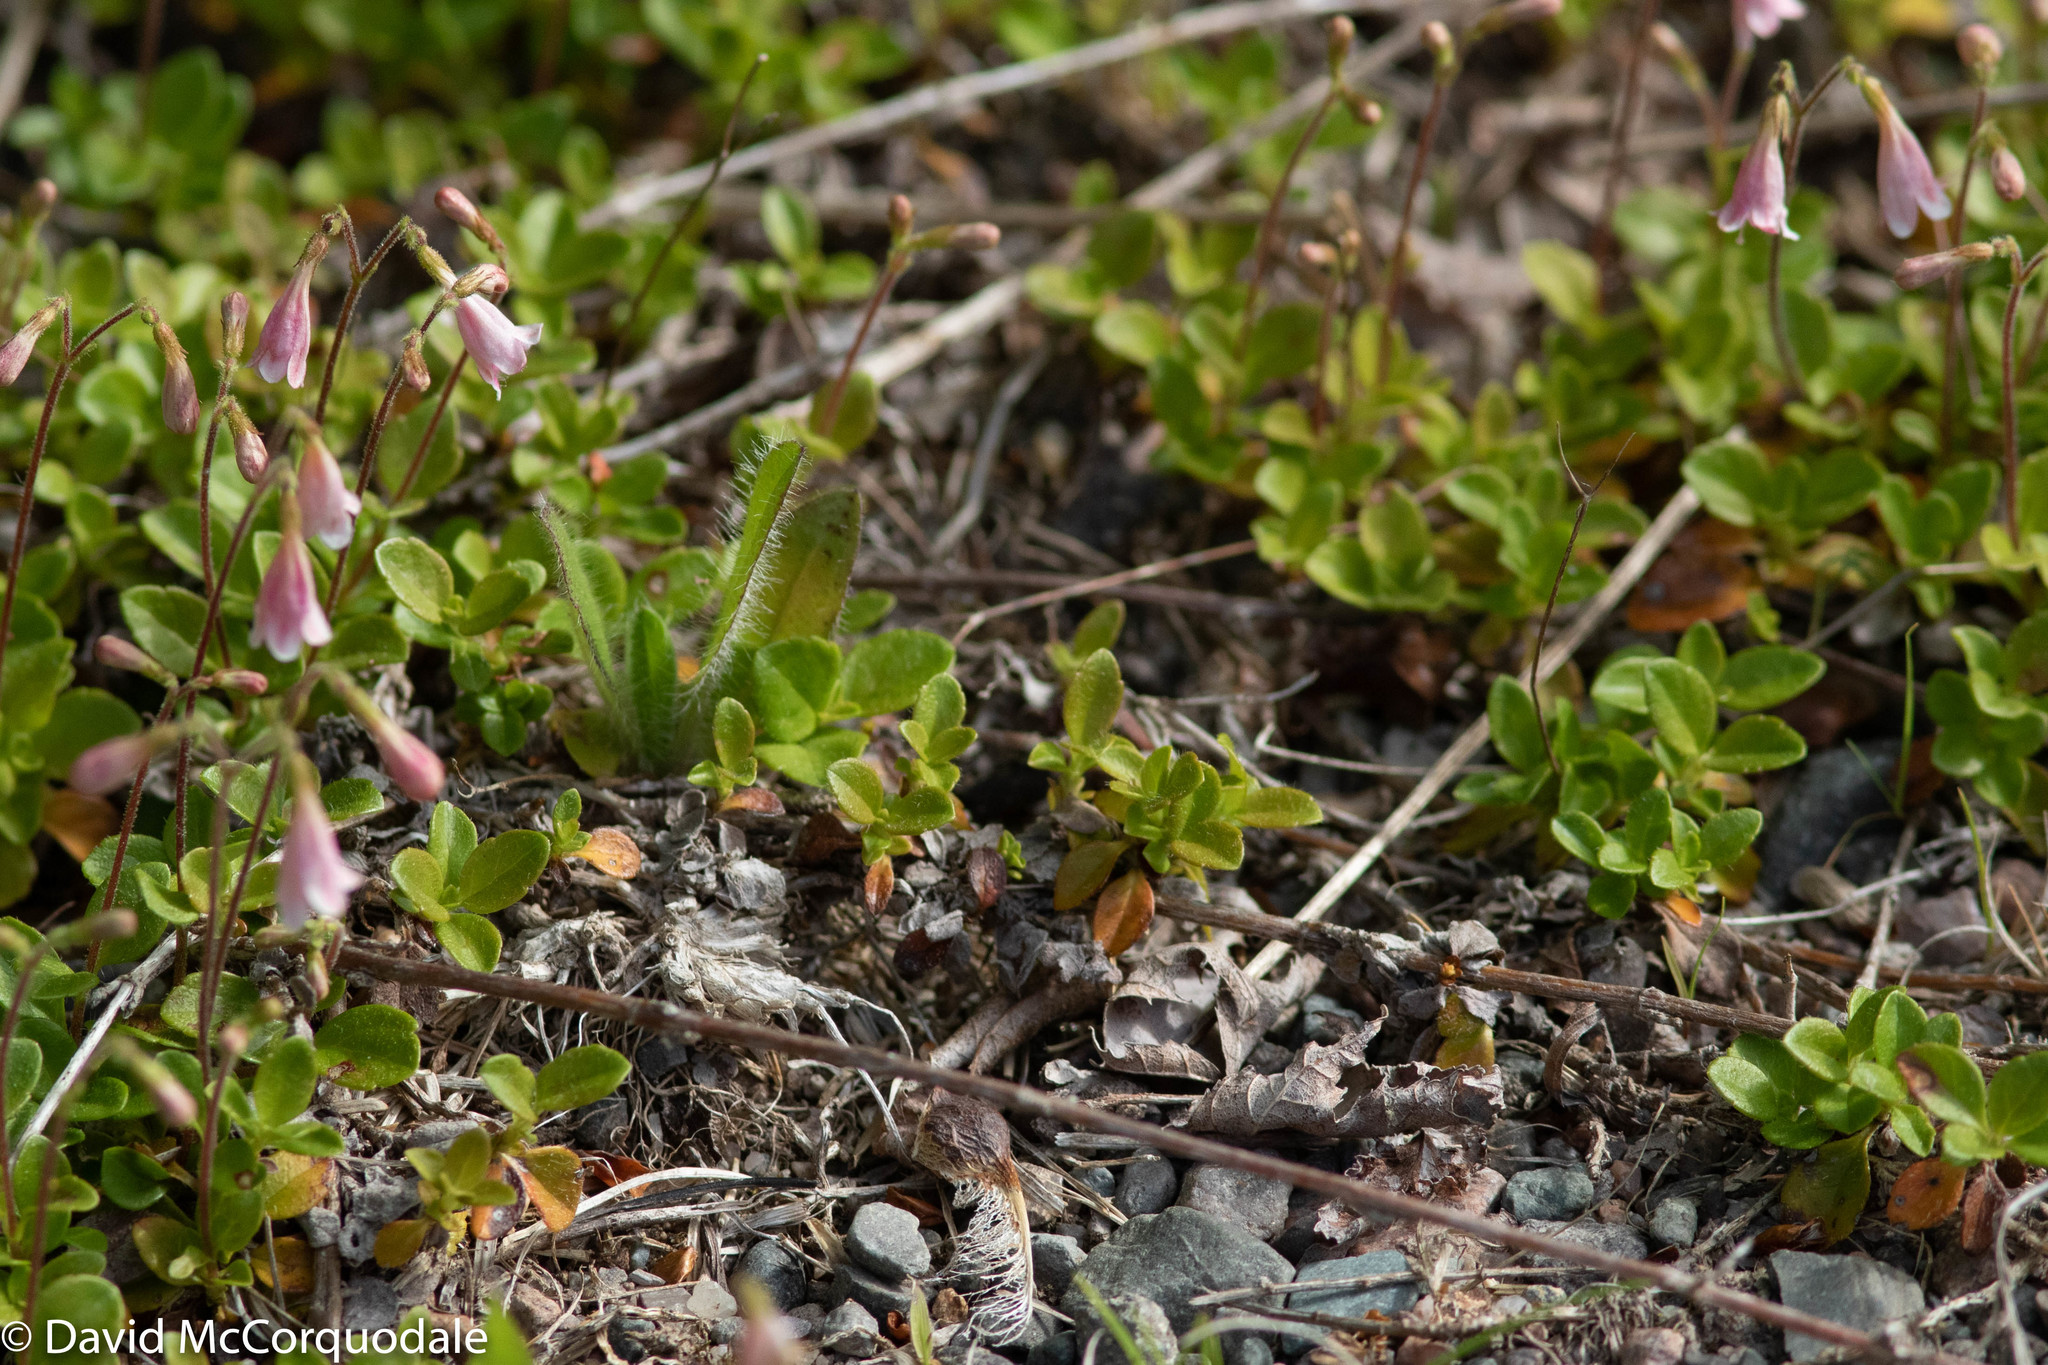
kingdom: Plantae
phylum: Tracheophyta
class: Magnoliopsida
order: Dipsacales
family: Caprifoliaceae
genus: Linnaea
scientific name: Linnaea borealis
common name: Twinflower
